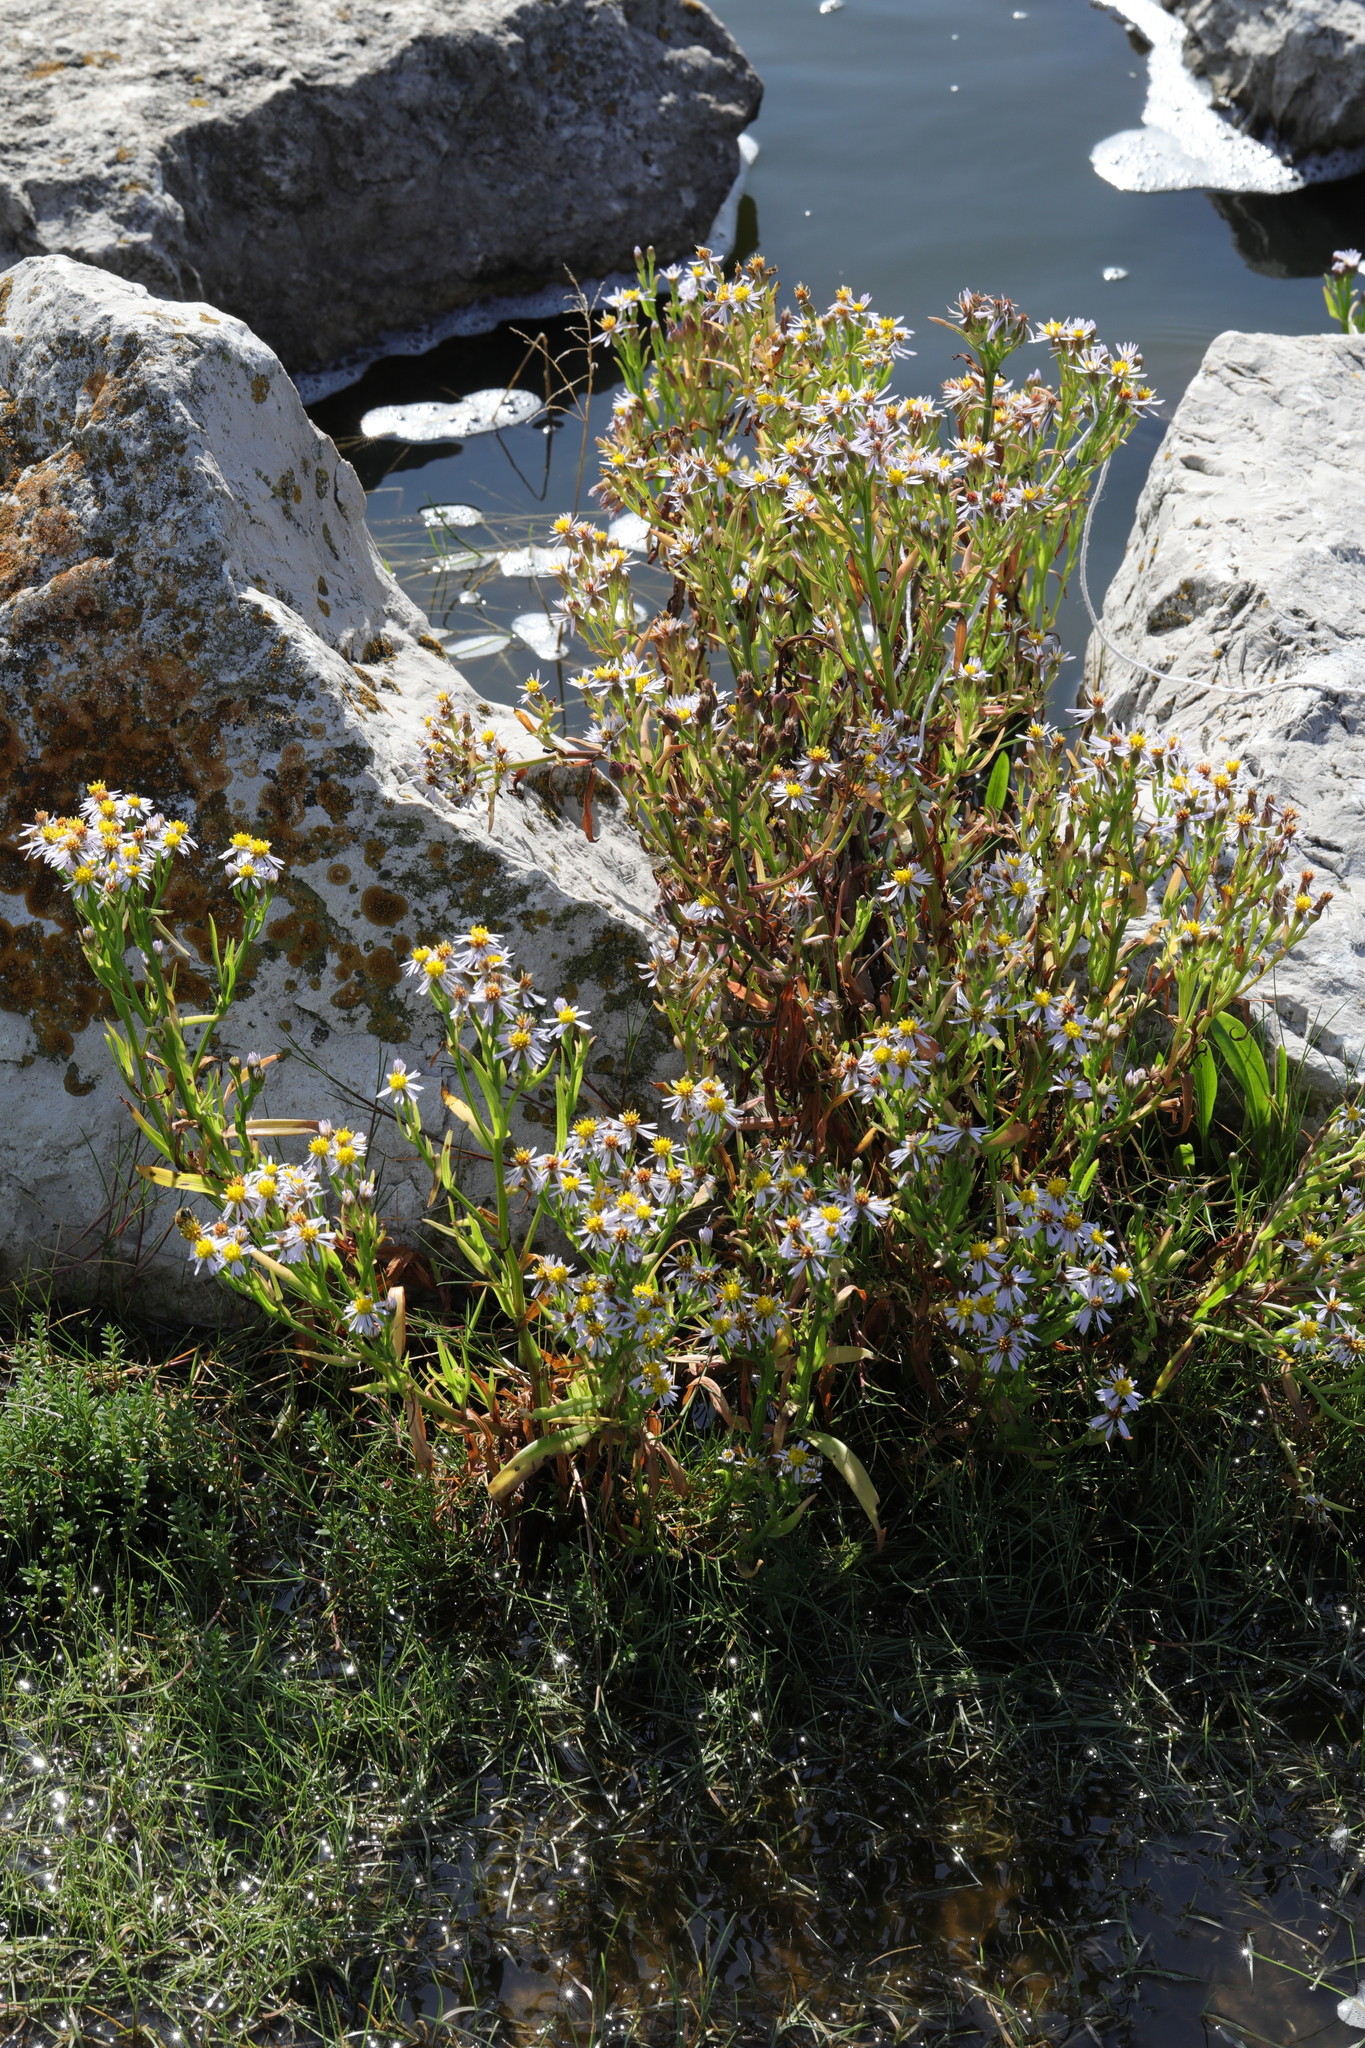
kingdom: Plantae
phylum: Tracheophyta
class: Magnoliopsida
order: Asterales
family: Asteraceae
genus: Tripolium
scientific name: Tripolium pannonicum
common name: Sea aster
